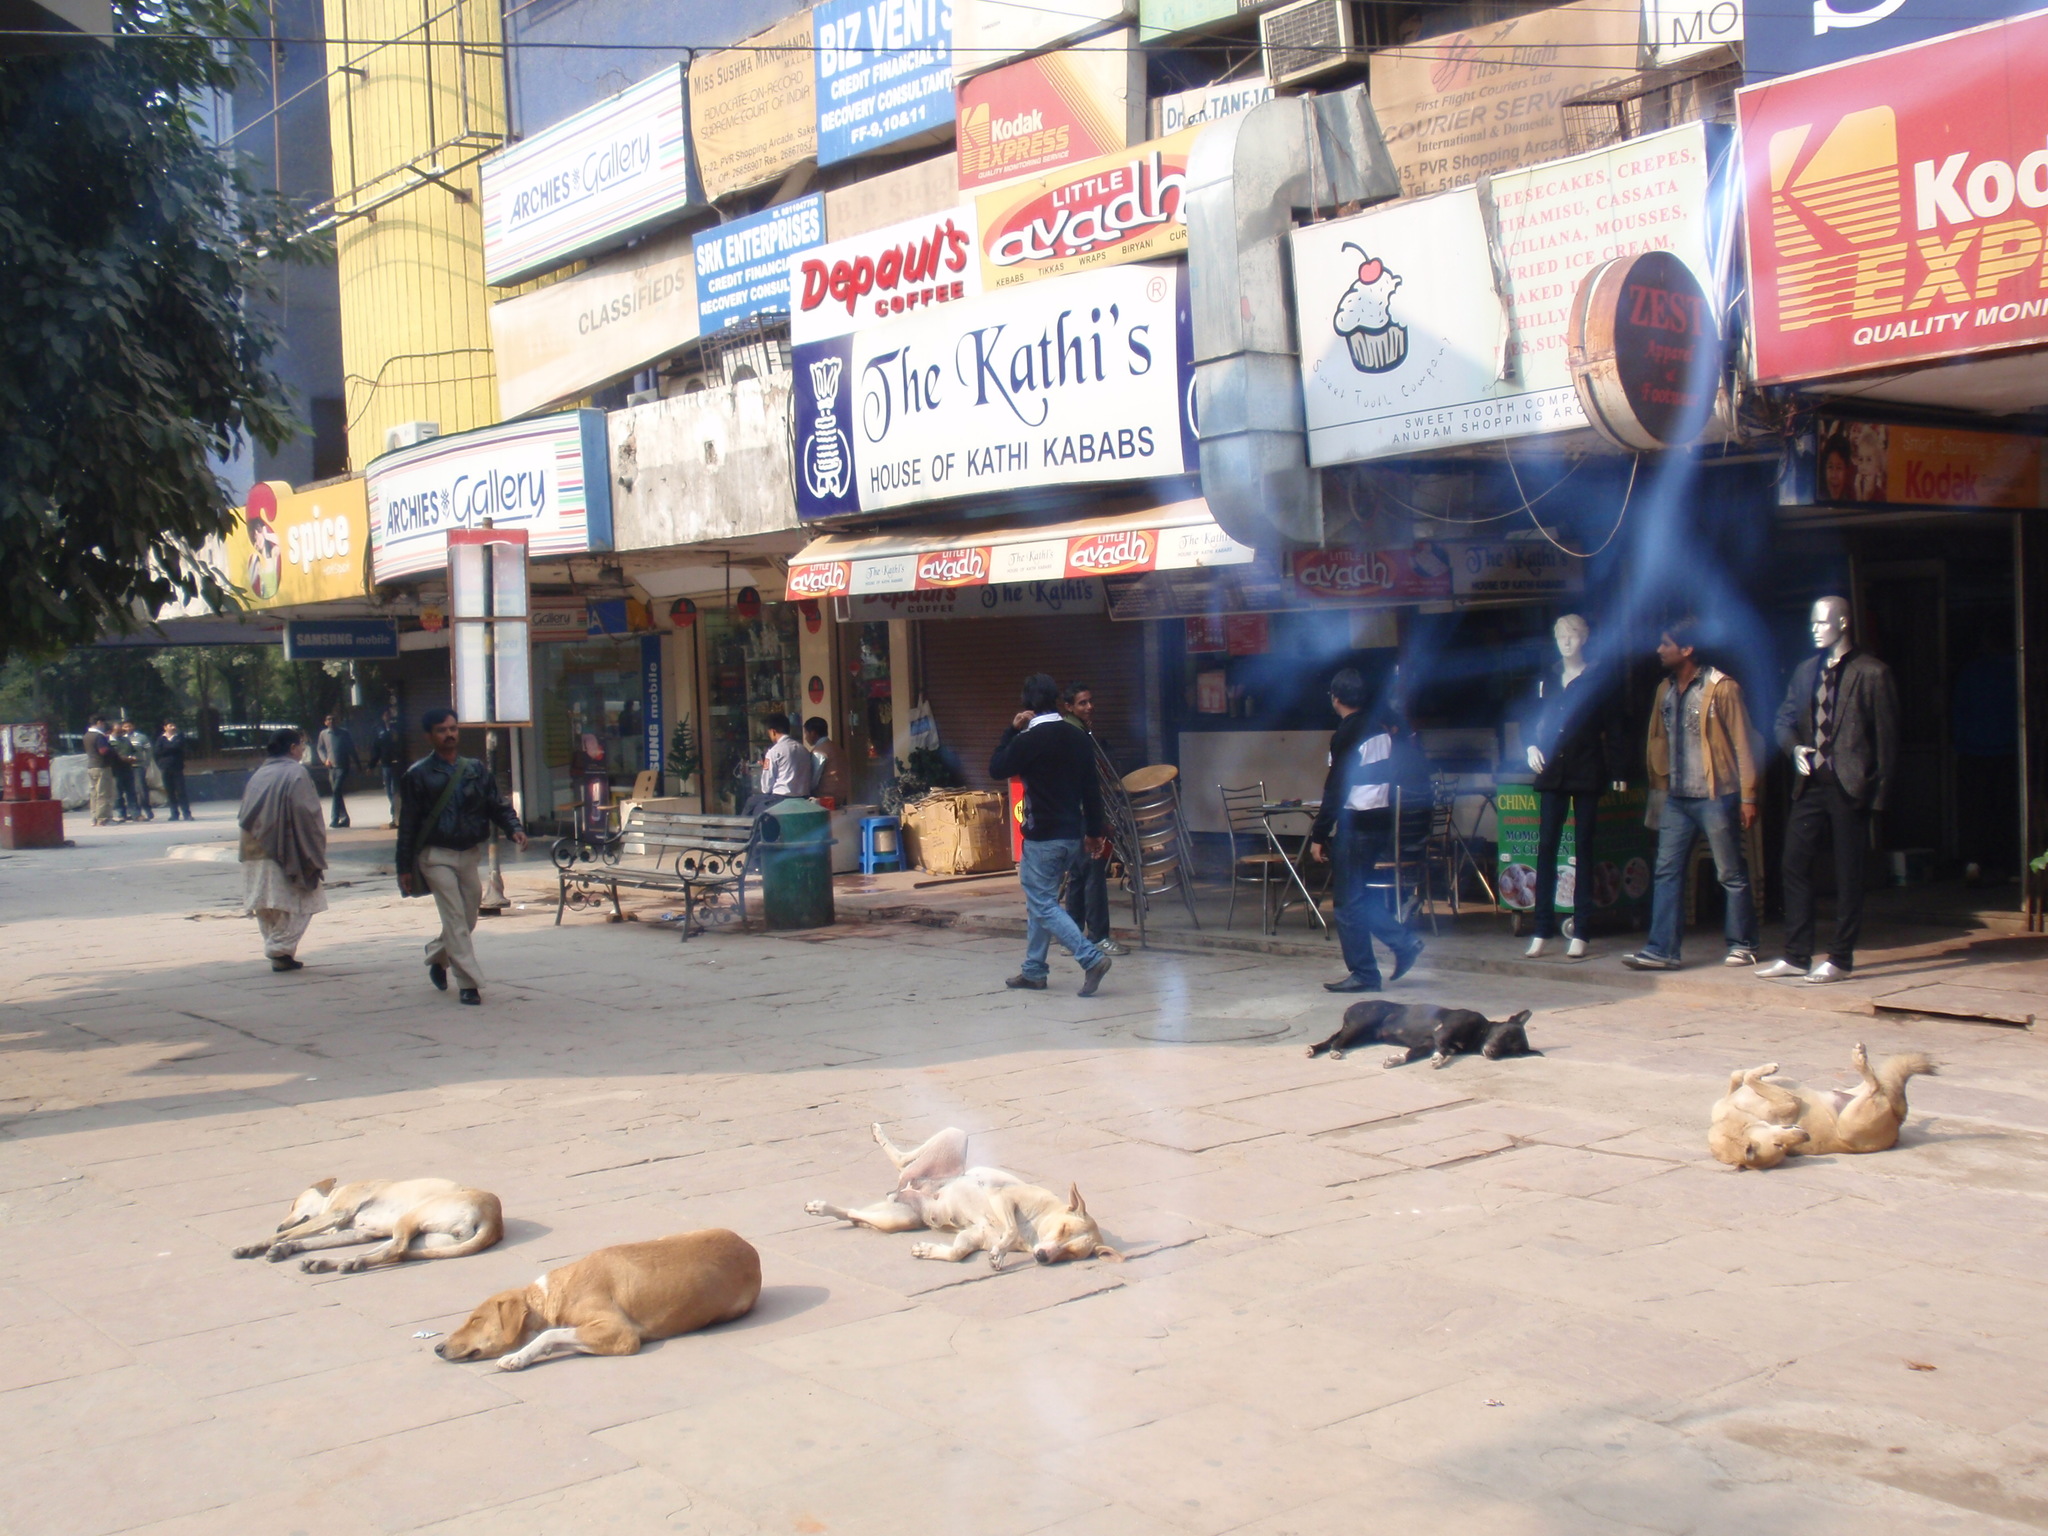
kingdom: Animalia
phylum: Chordata
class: Mammalia
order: Carnivora
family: Canidae
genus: Canis
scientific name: Canis lupus
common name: Gray wolf
